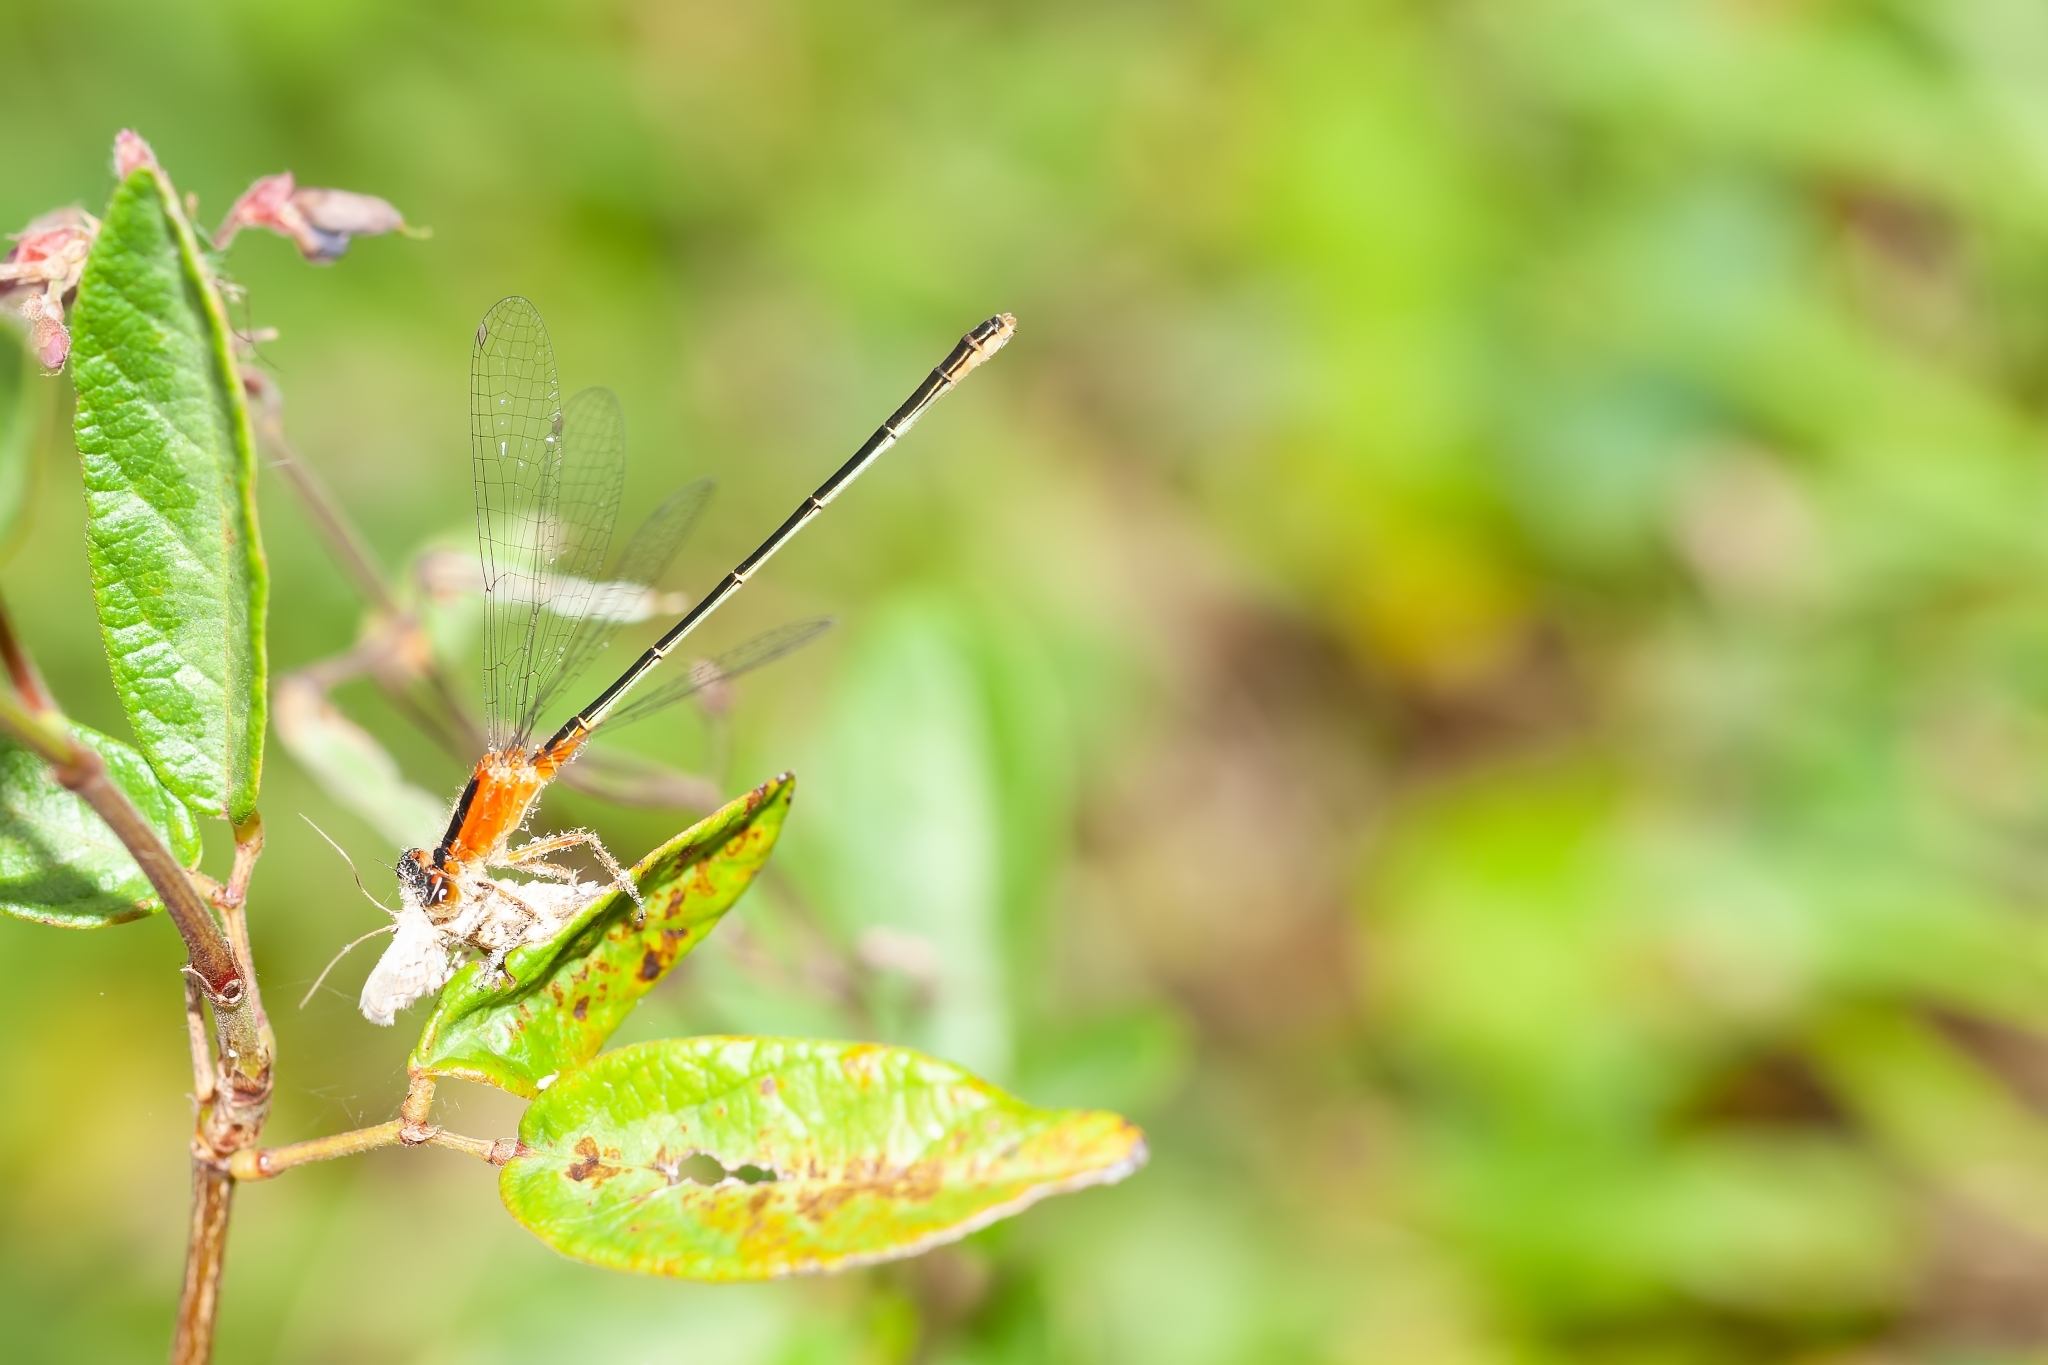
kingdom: Animalia
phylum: Arthropoda
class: Insecta
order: Odonata
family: Coenagrionidae
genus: Ischnura
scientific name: Ischnura ramburii
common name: Rambur's forktail
